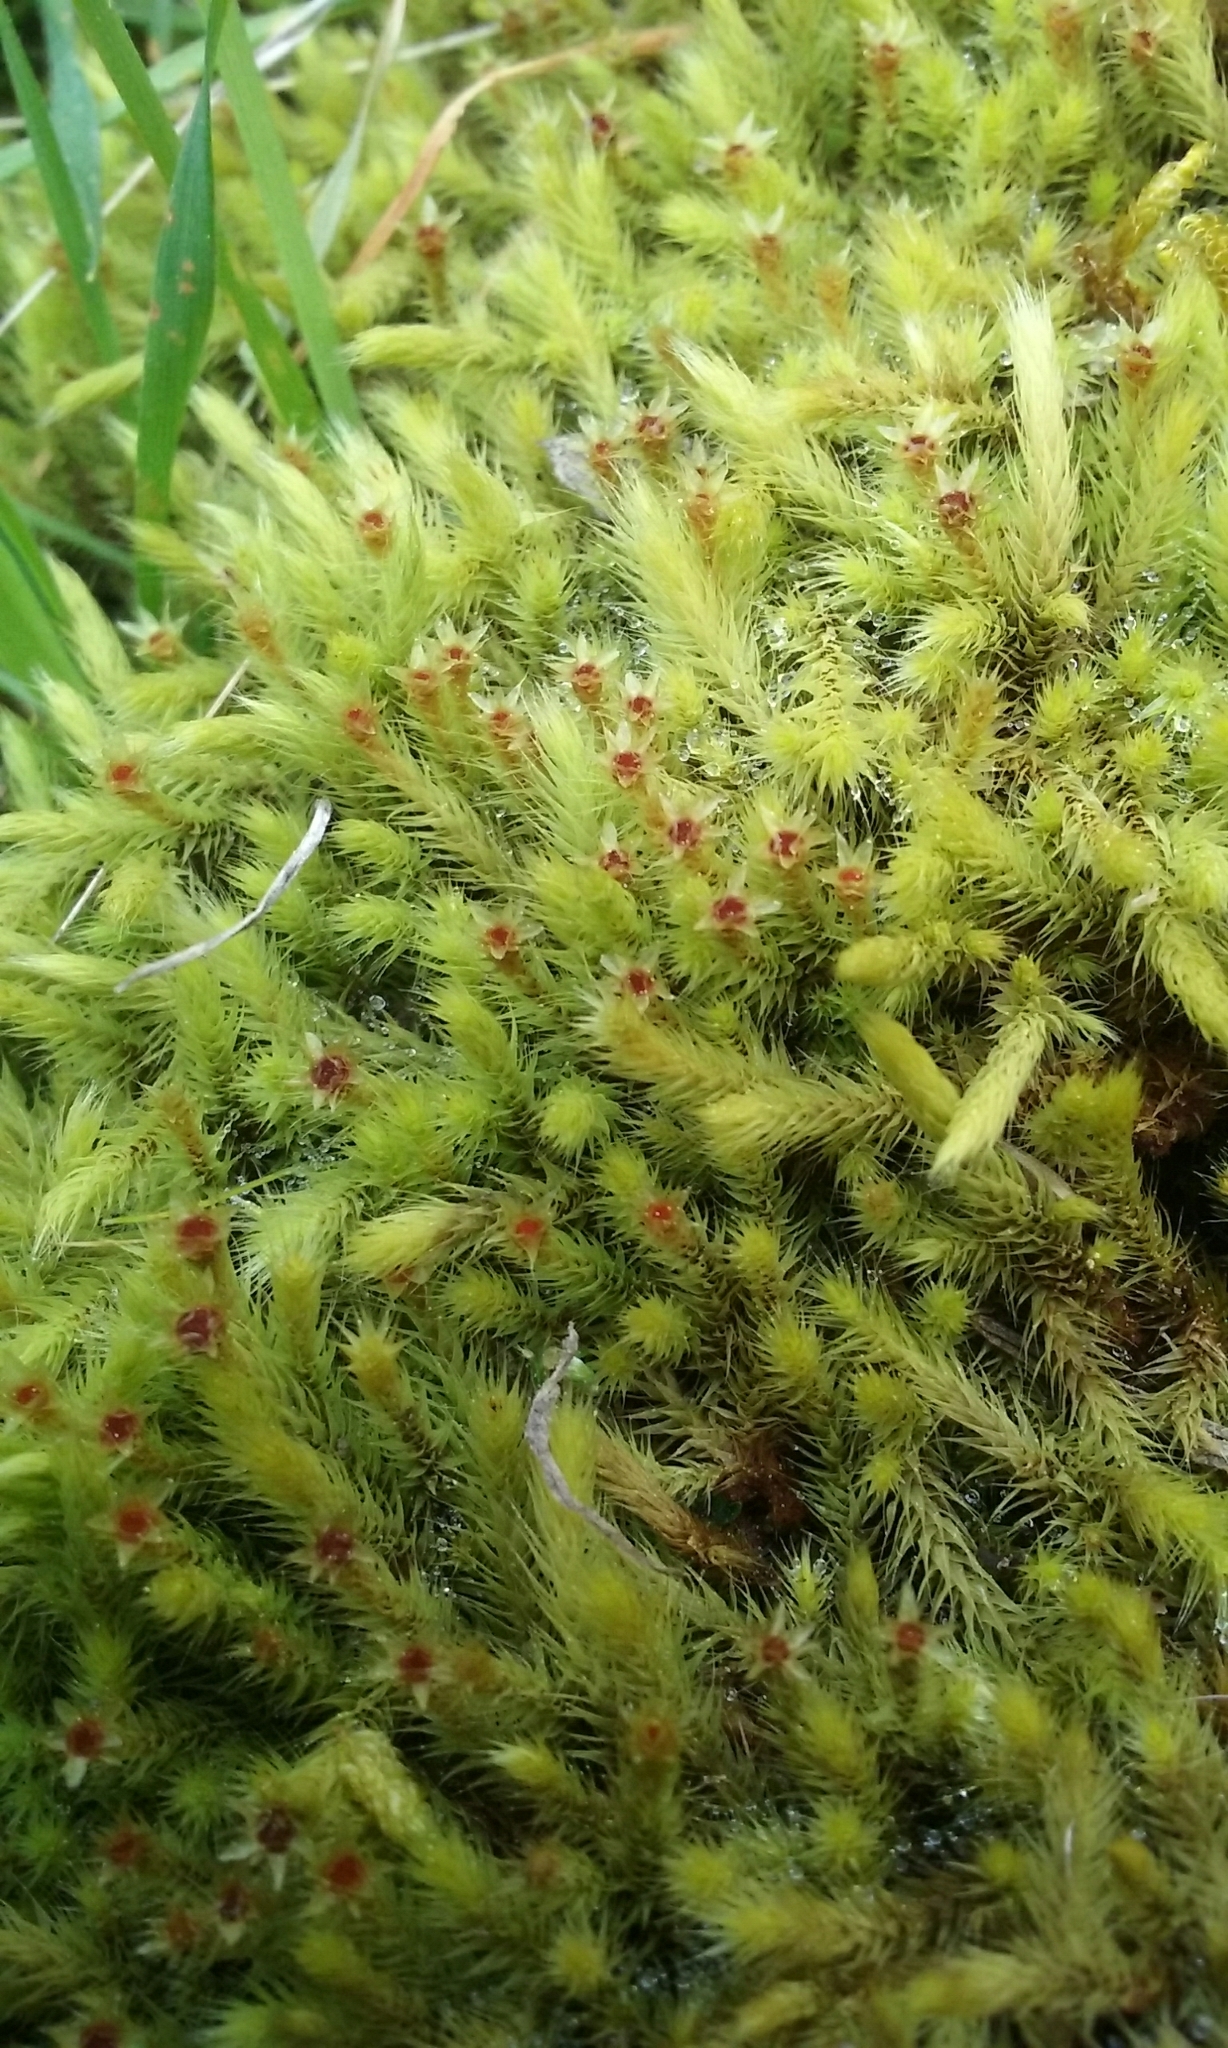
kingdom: Plantae
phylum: Bryophyta
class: Bryopsida
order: Bartramiales
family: Bartramiaceae
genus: Breutelia
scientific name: Breutelia affinis
